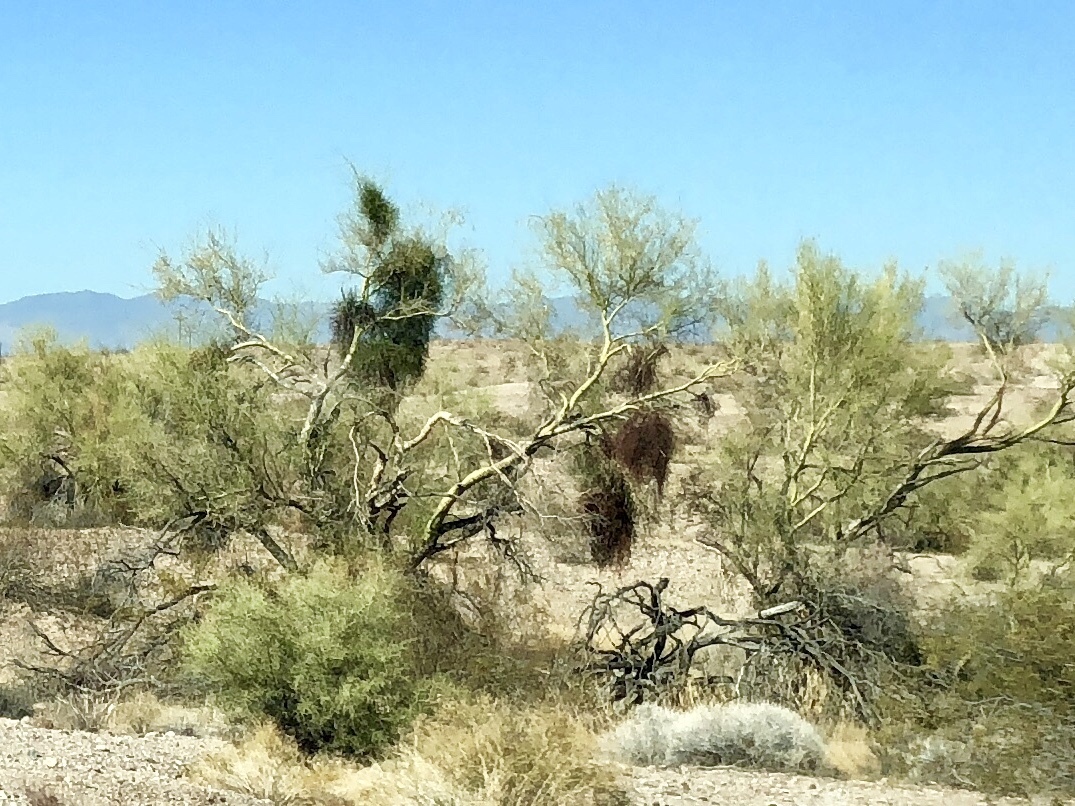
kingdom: Plantae
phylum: Tracheophyta
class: Magnoliopsida
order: Fabales
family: Fabaceae
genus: Parkinsonia
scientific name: Parkinsonia microphylla
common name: Yellow paloverde
